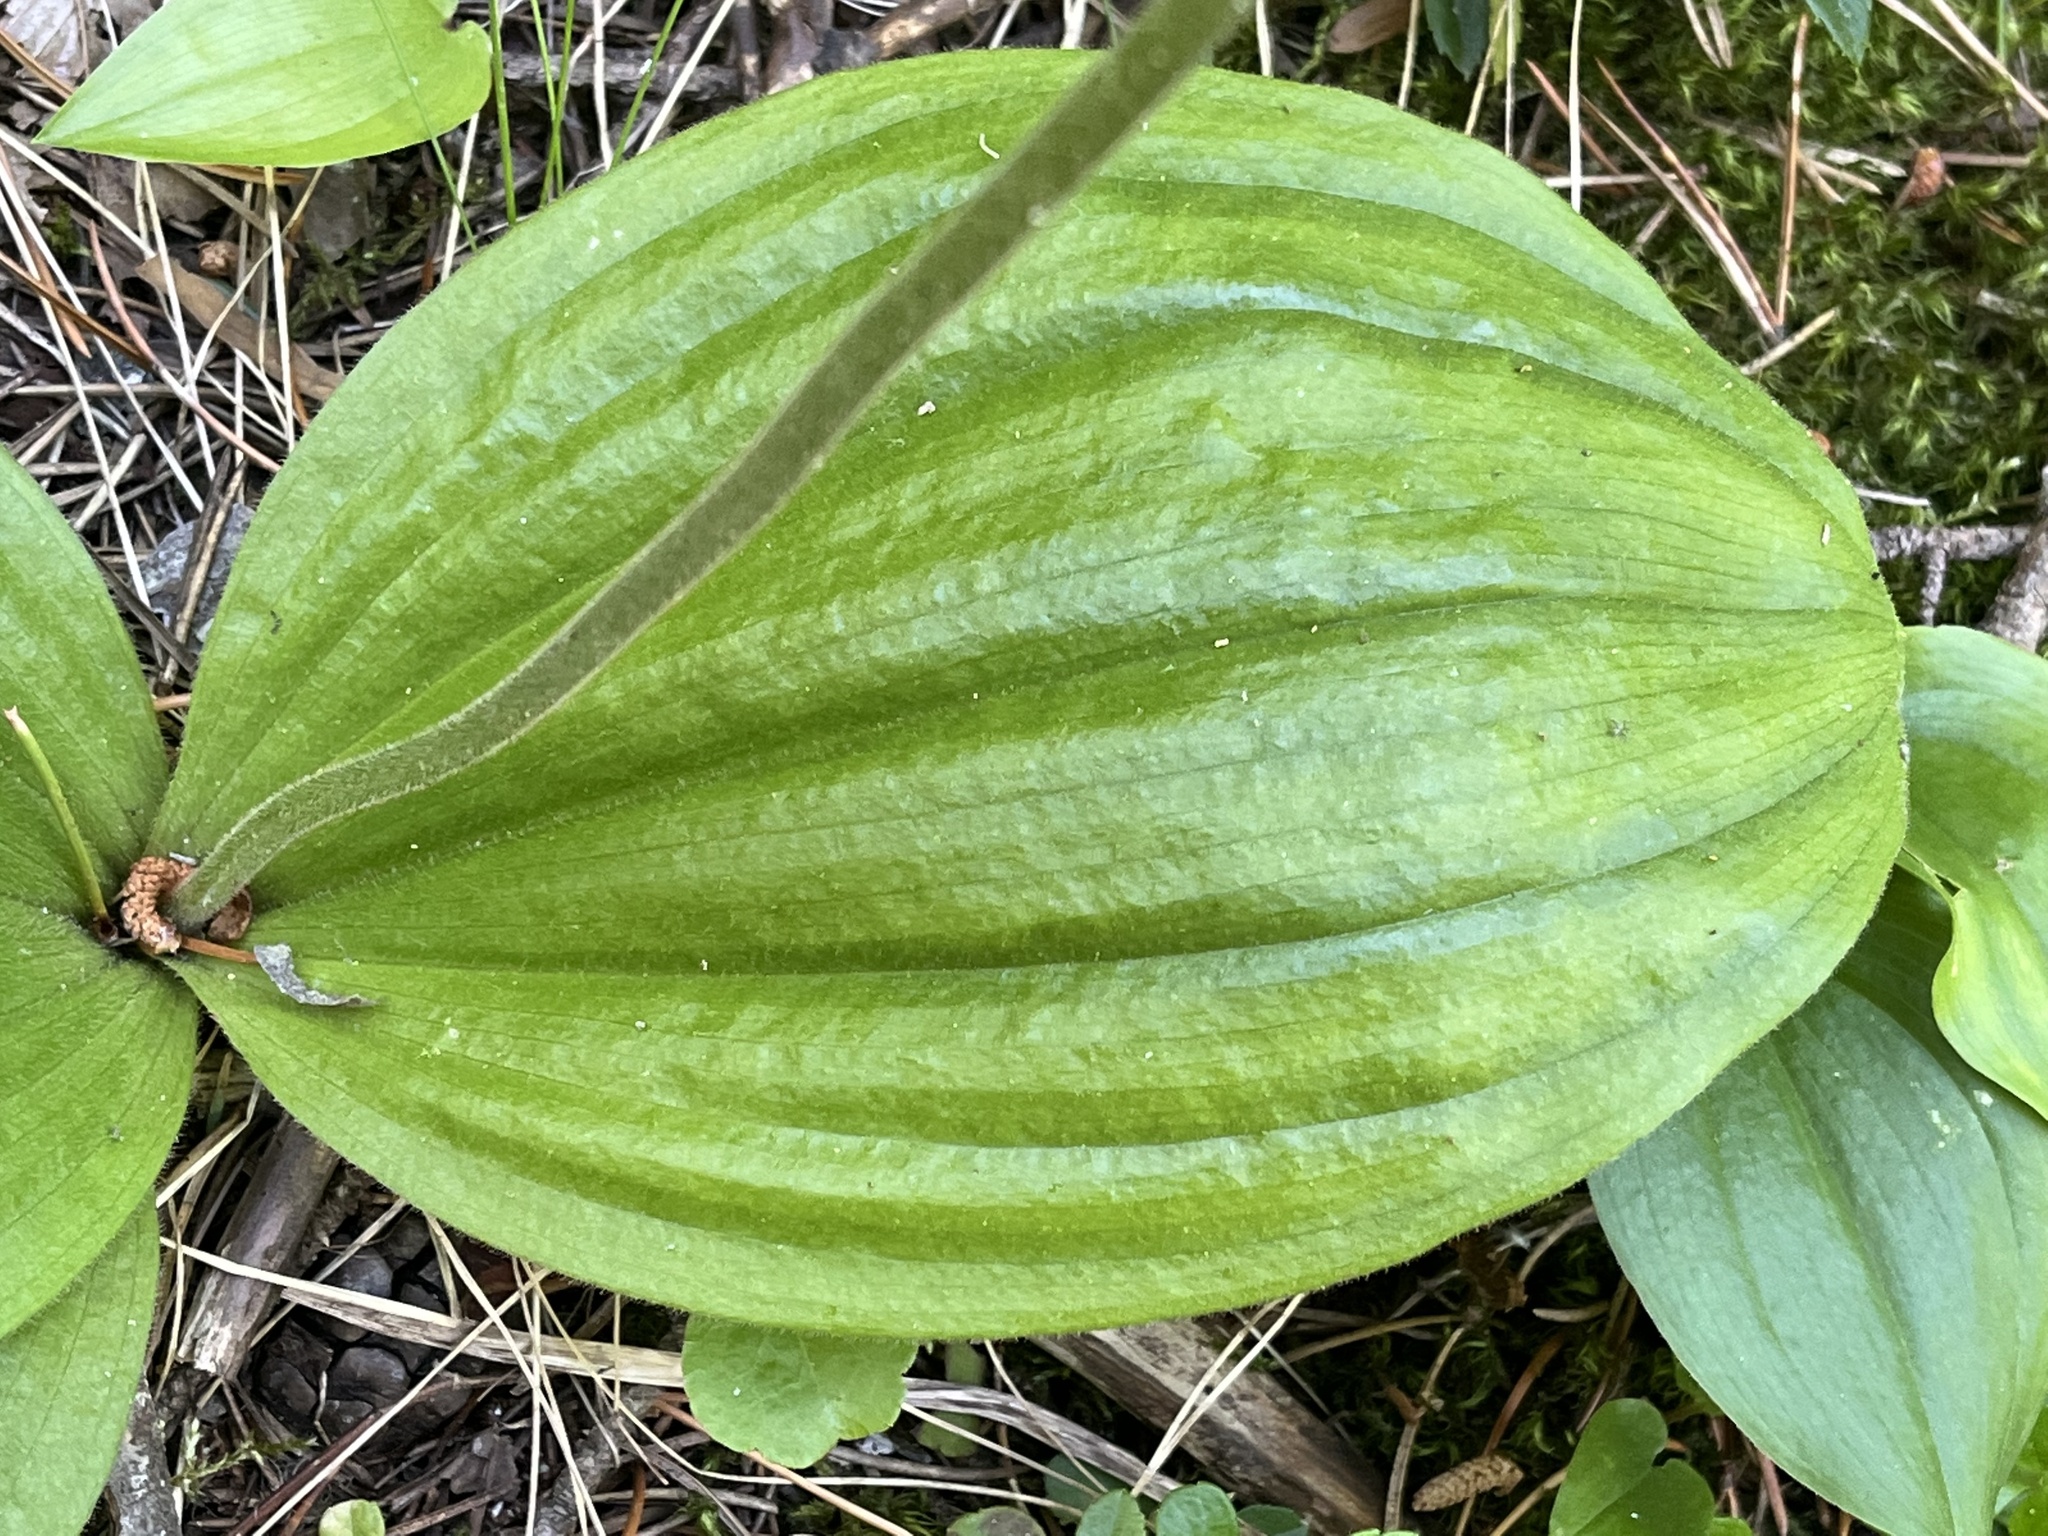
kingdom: Plantae
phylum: Tracheophyta
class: Liliopsida
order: Asparagales
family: Orchidaceae
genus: Cypripedium
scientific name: Cypripedium acaule
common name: Pink lady's-slipper
